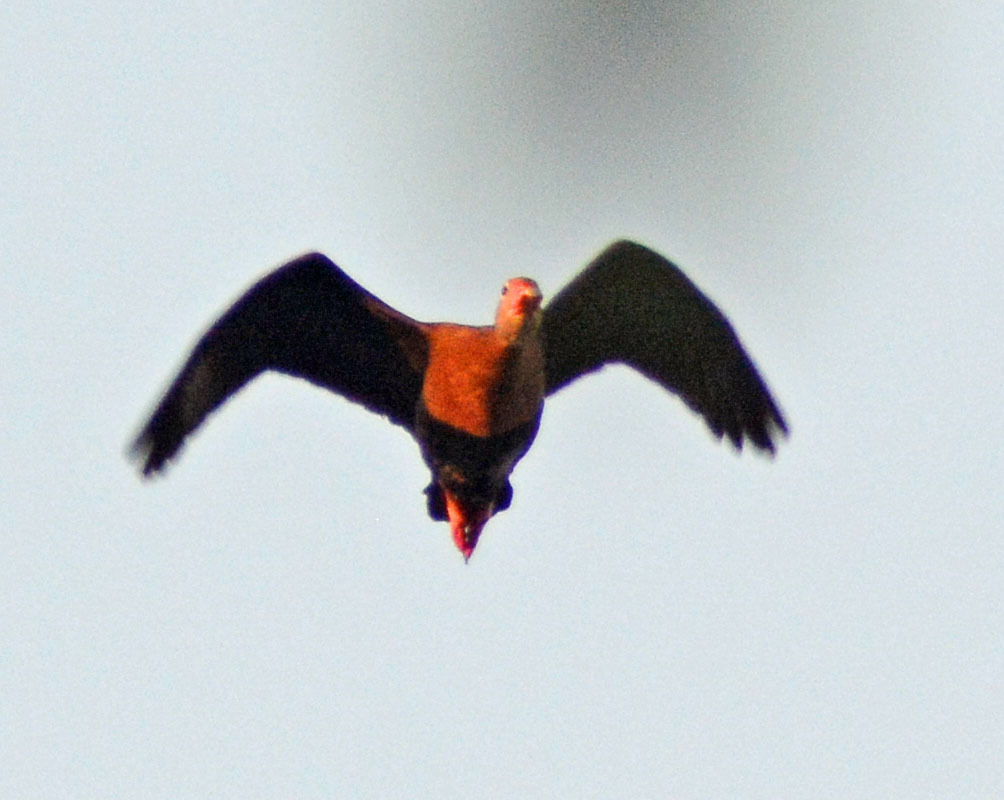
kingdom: Animalia
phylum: Chordata
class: Aves
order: Anseriformes
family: Anatidae
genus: Dendrocygna
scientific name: Dendrocygna autumnalis
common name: Black-bellied whistling duck
